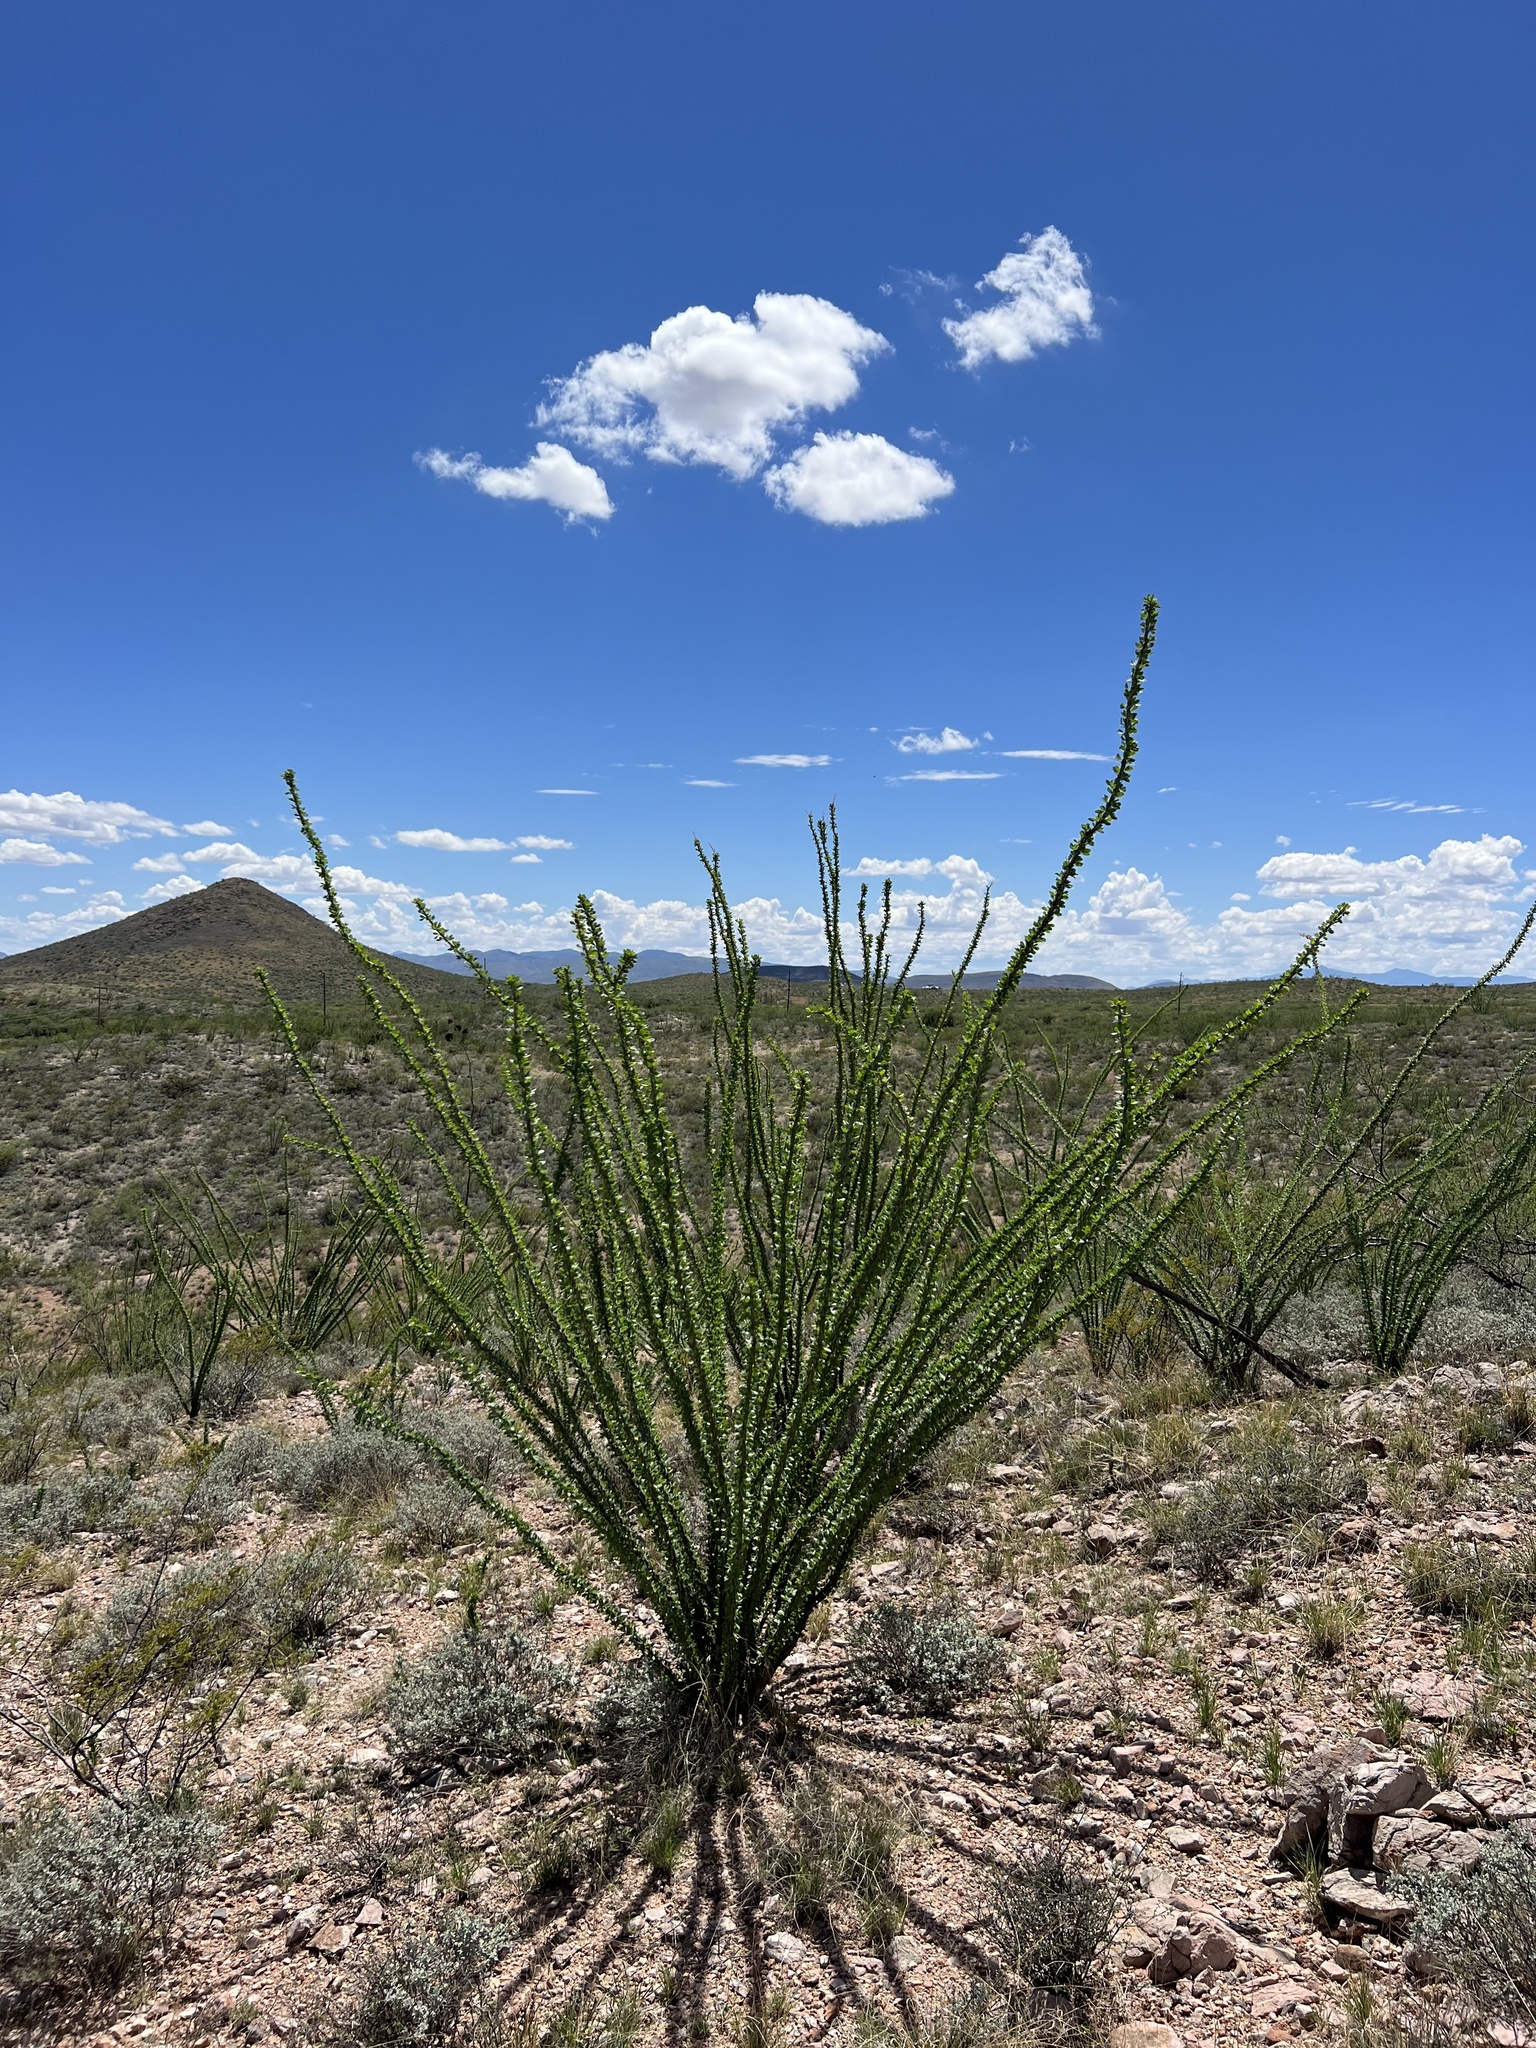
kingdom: Plantae
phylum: Tracheophyta
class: Magnoliopsida
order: Ericales
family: Fouquieriaceae
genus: Fouquieria
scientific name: Fouquieria splendens
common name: Vine-cactus
